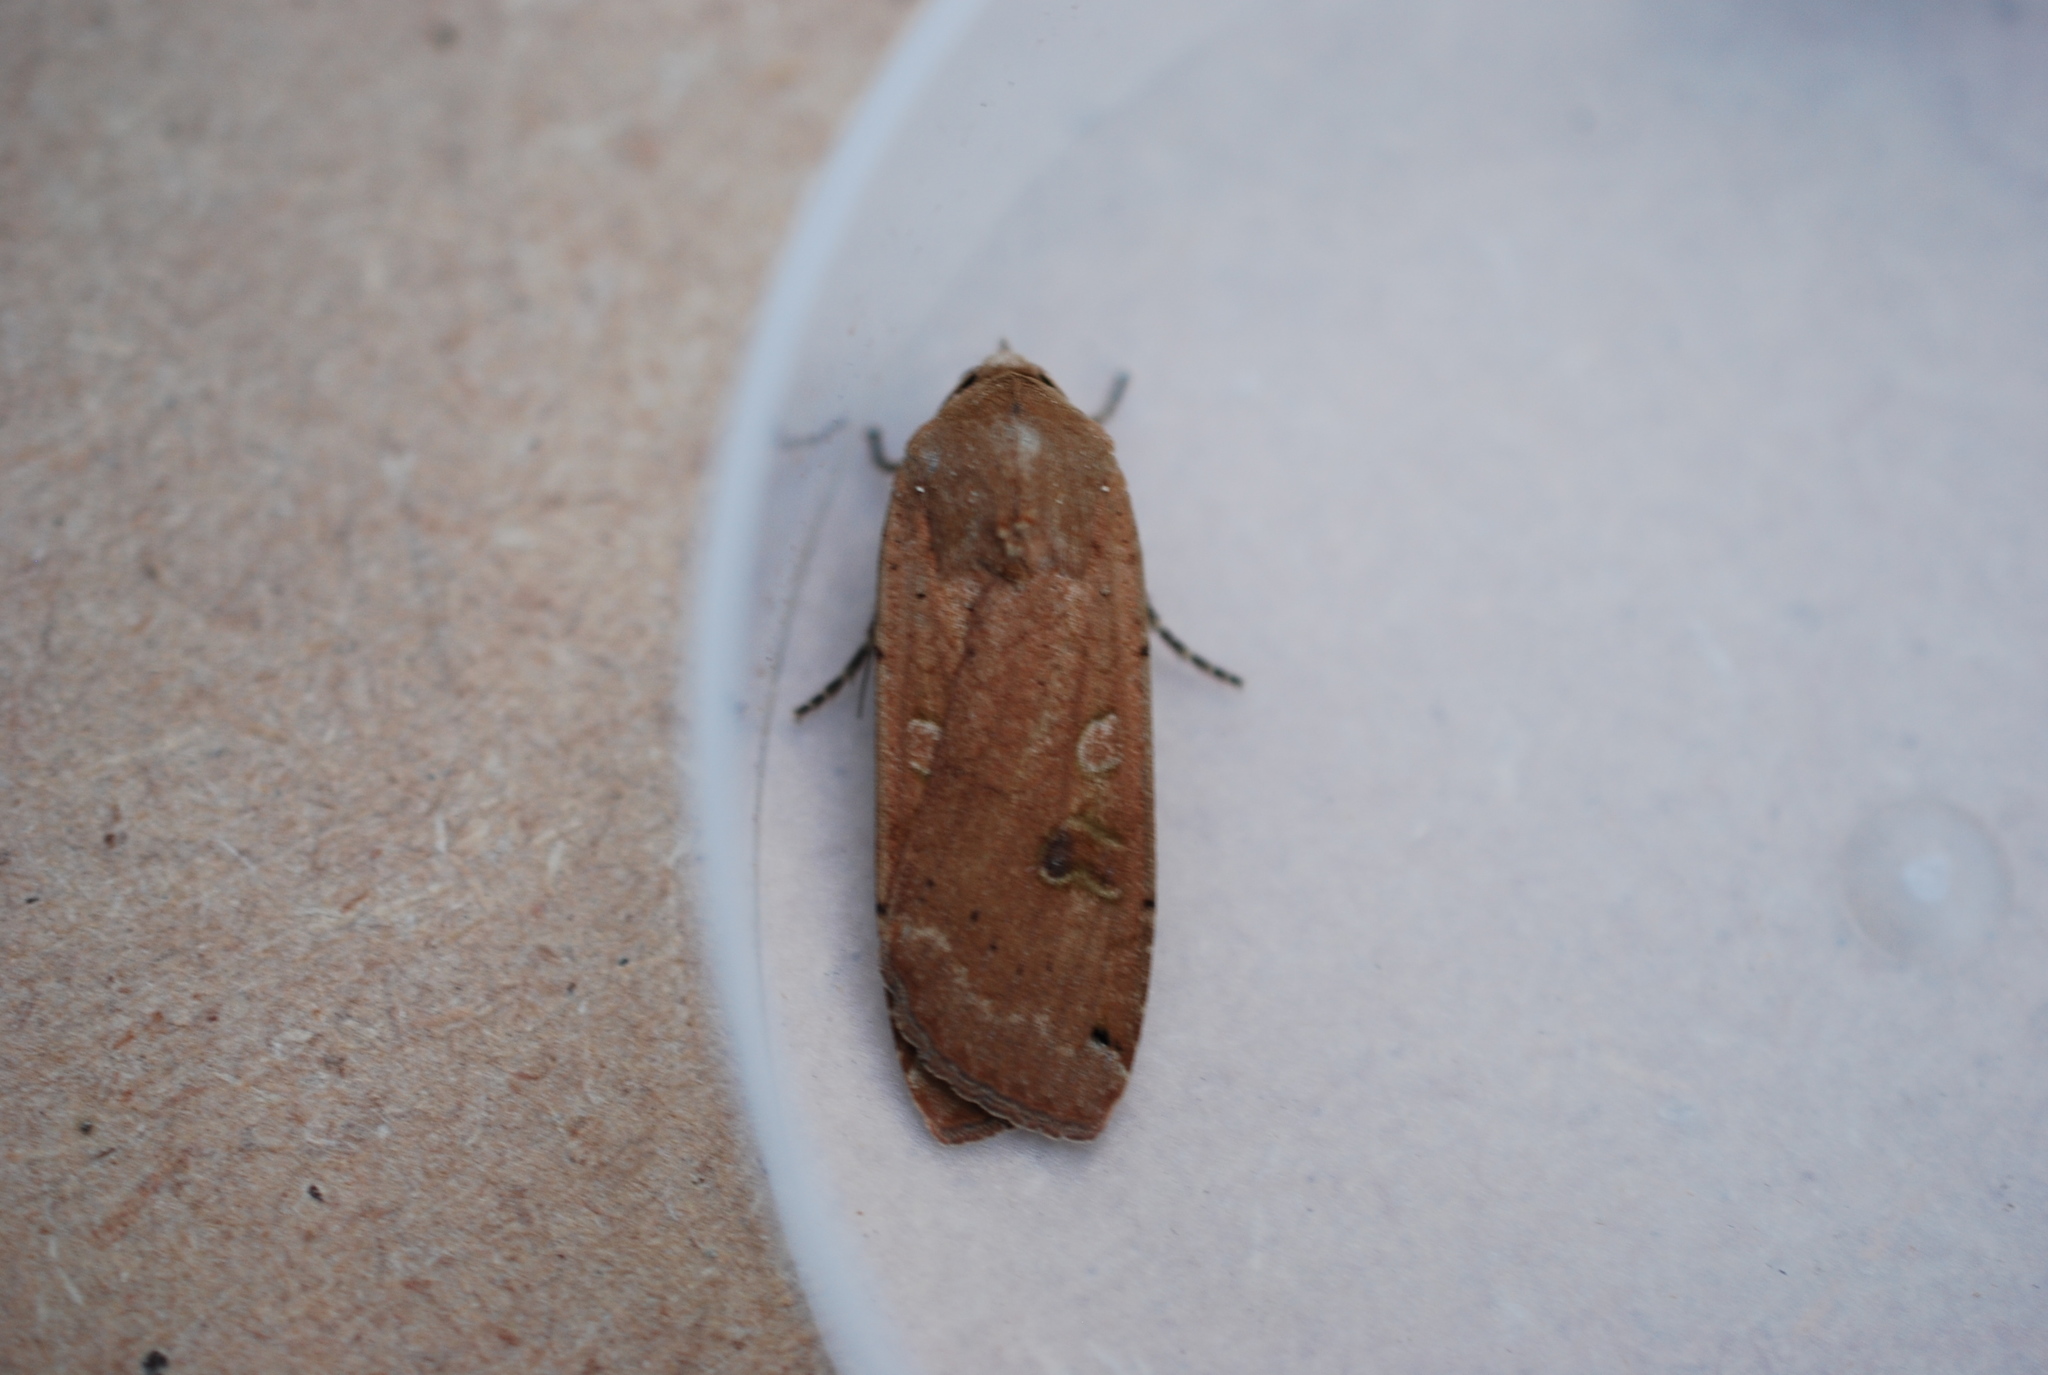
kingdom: Animalia
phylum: Arthropoda
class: Insecta
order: Lepidoptera
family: Noctuidae
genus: Noctua
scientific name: Noctua pronuba
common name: Large yellow underwing
